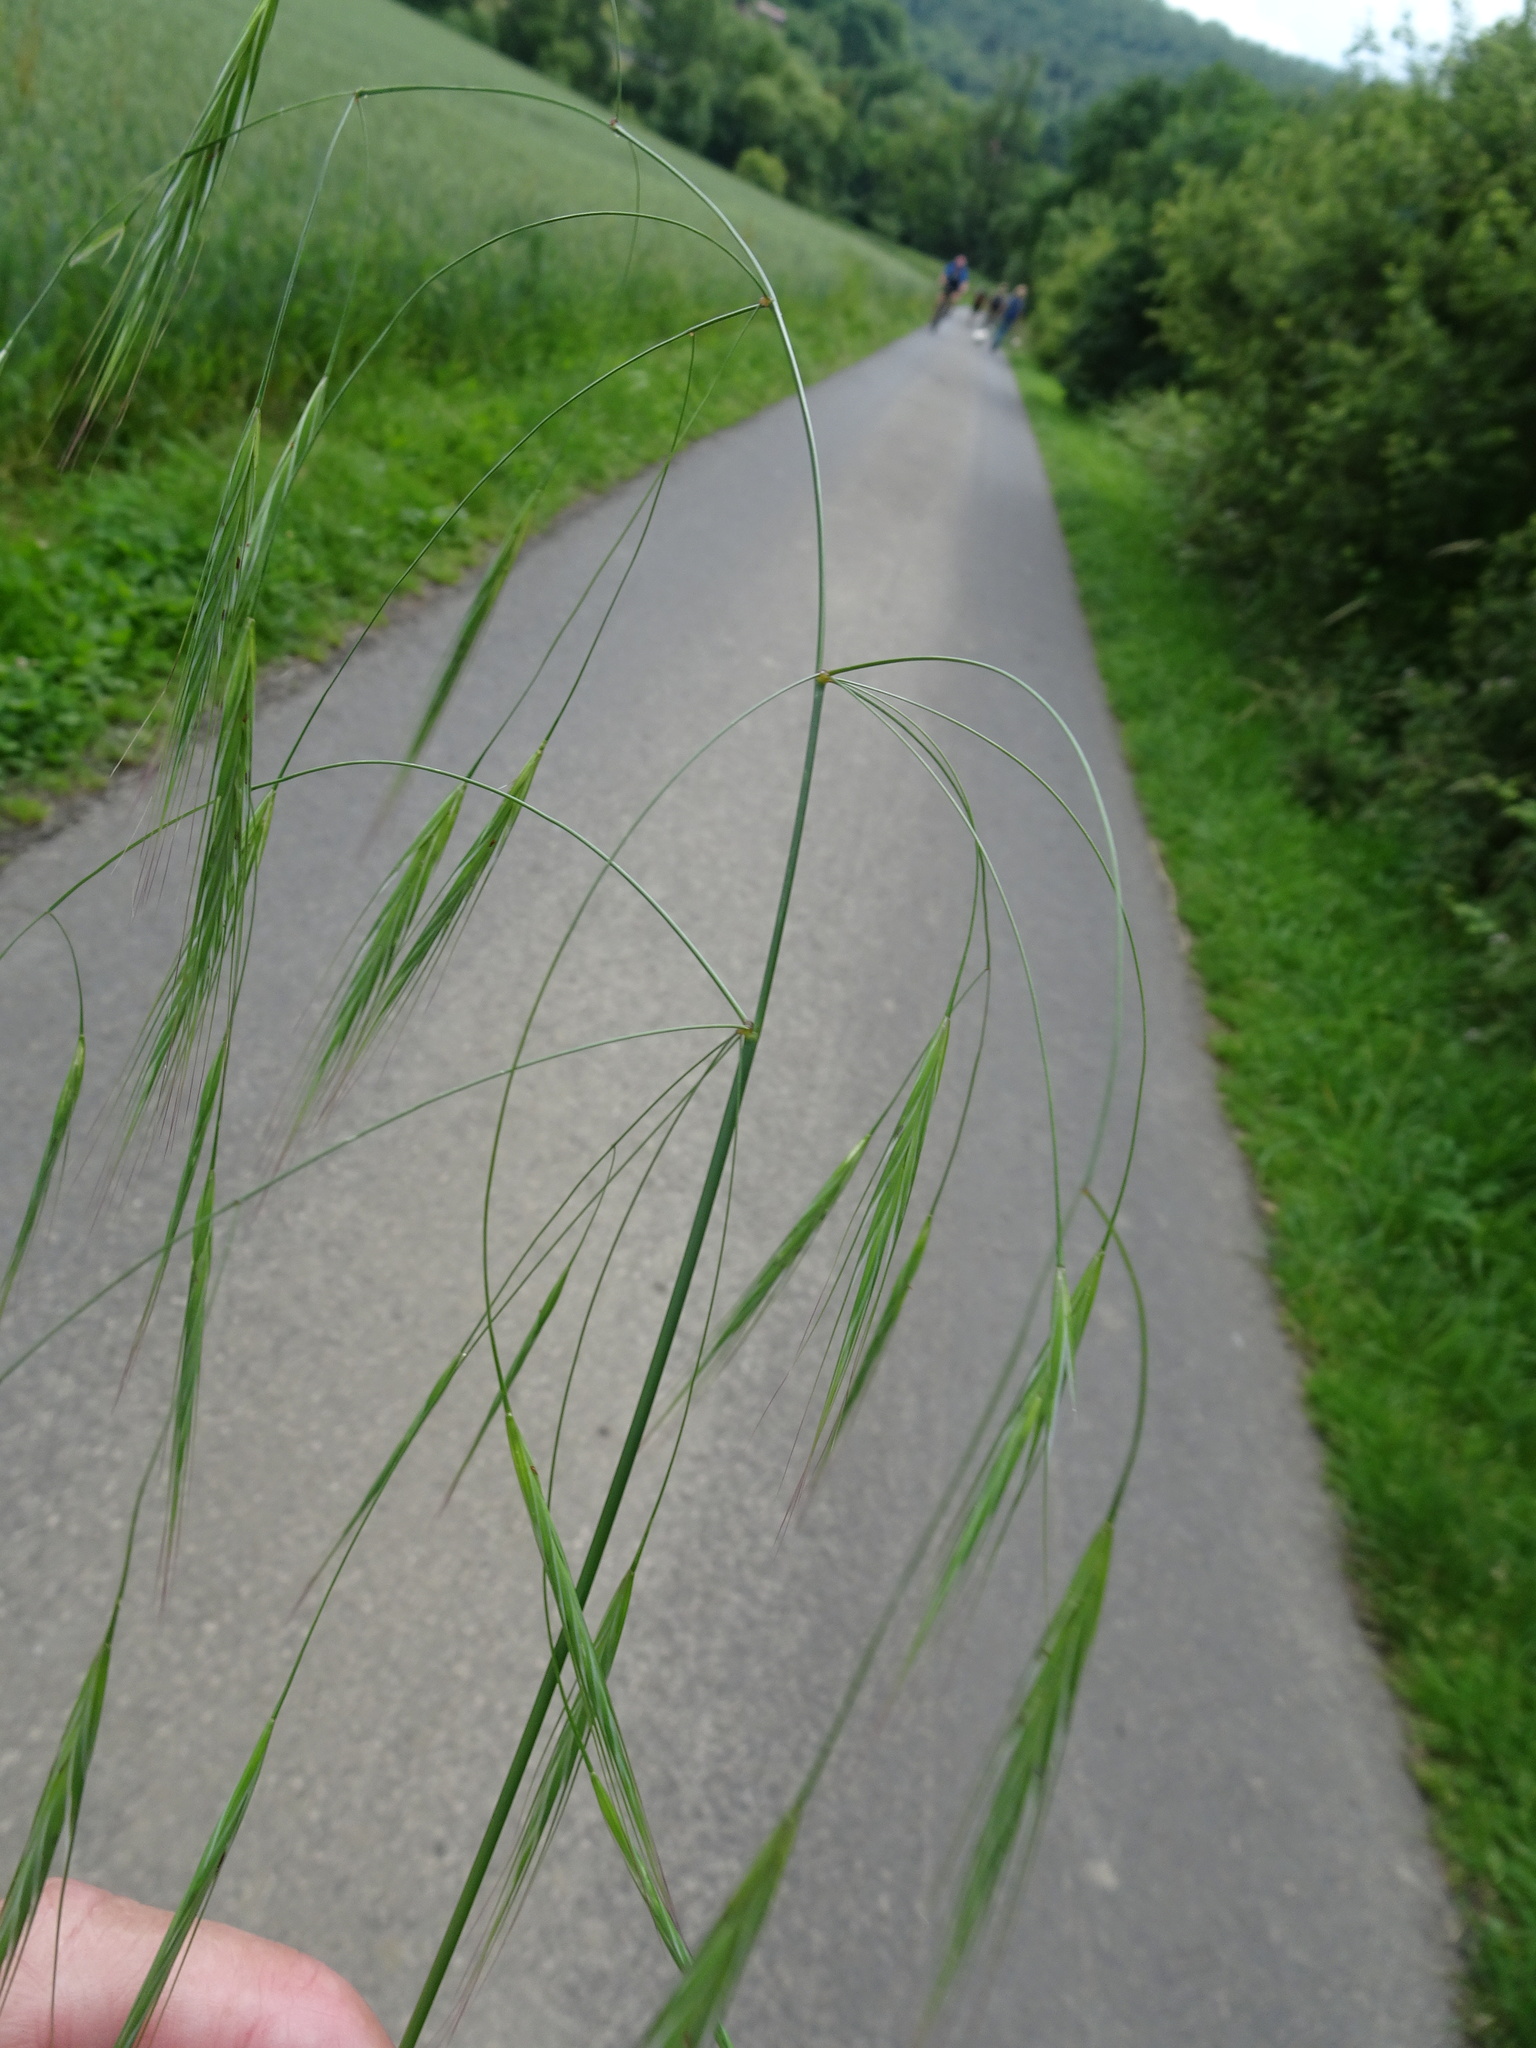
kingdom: Plantae
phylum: Tracheophyta
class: Liliopsida
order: Poales
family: Poaceae
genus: Bromus
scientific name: Bromus sterilis
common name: Poverty brome
